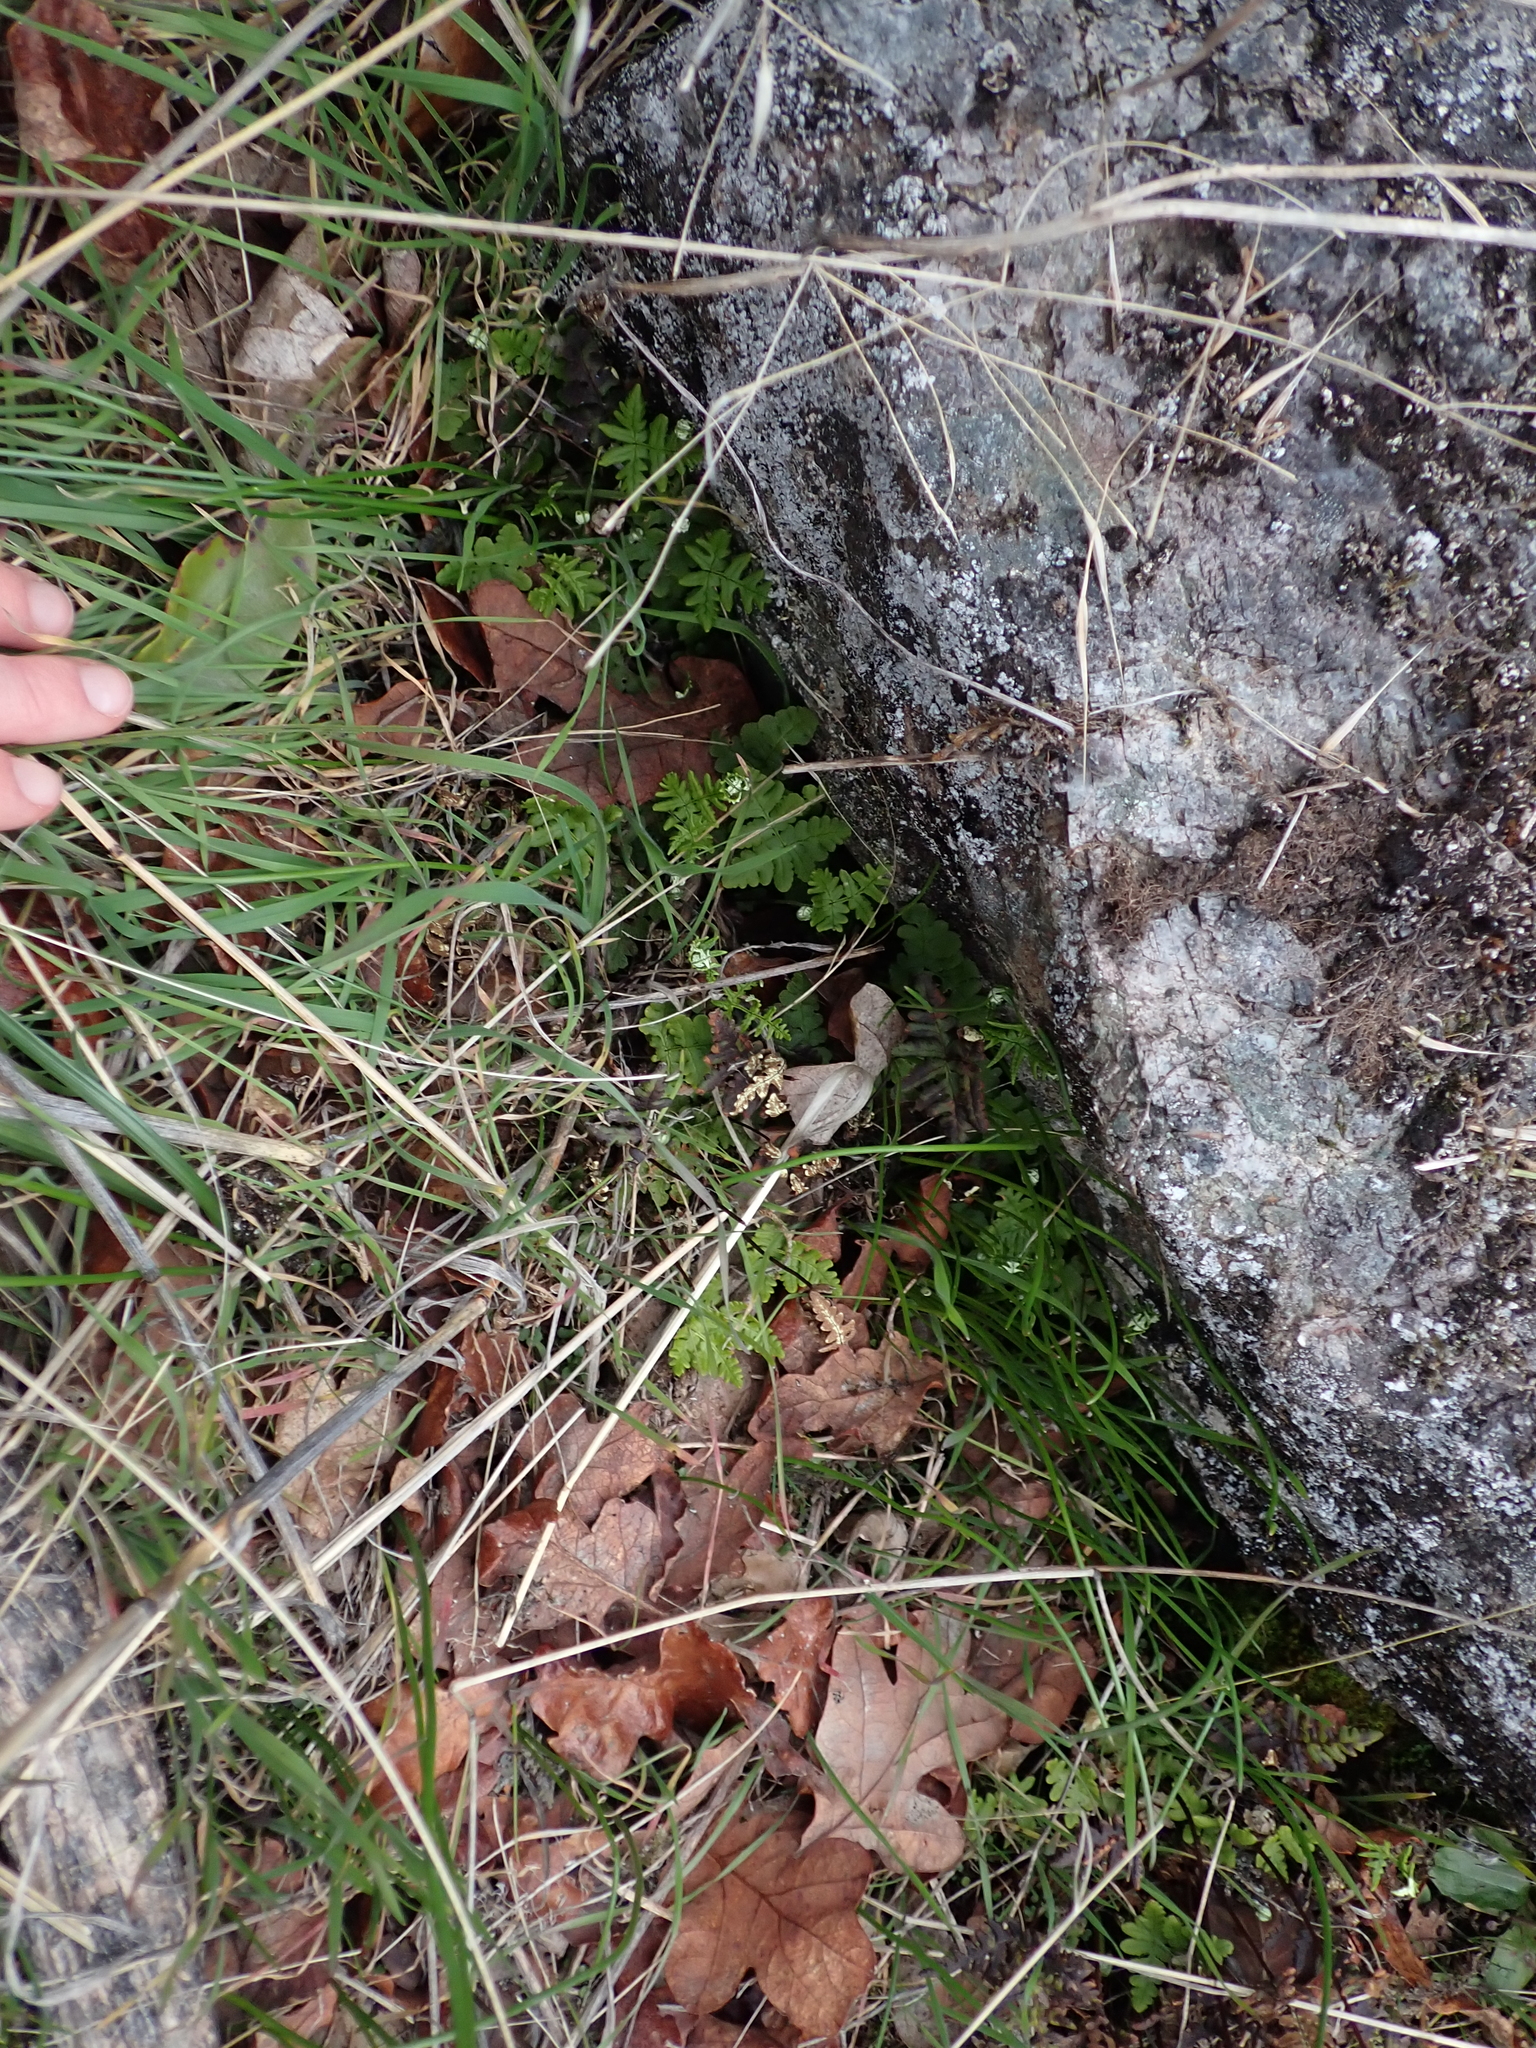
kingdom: Plantae
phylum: Tracheophyta
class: Polypodiopsida
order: Polypodiales
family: Pteridaceae
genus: Pentagramma
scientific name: Pentagramma triangularis
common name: Gold fern
